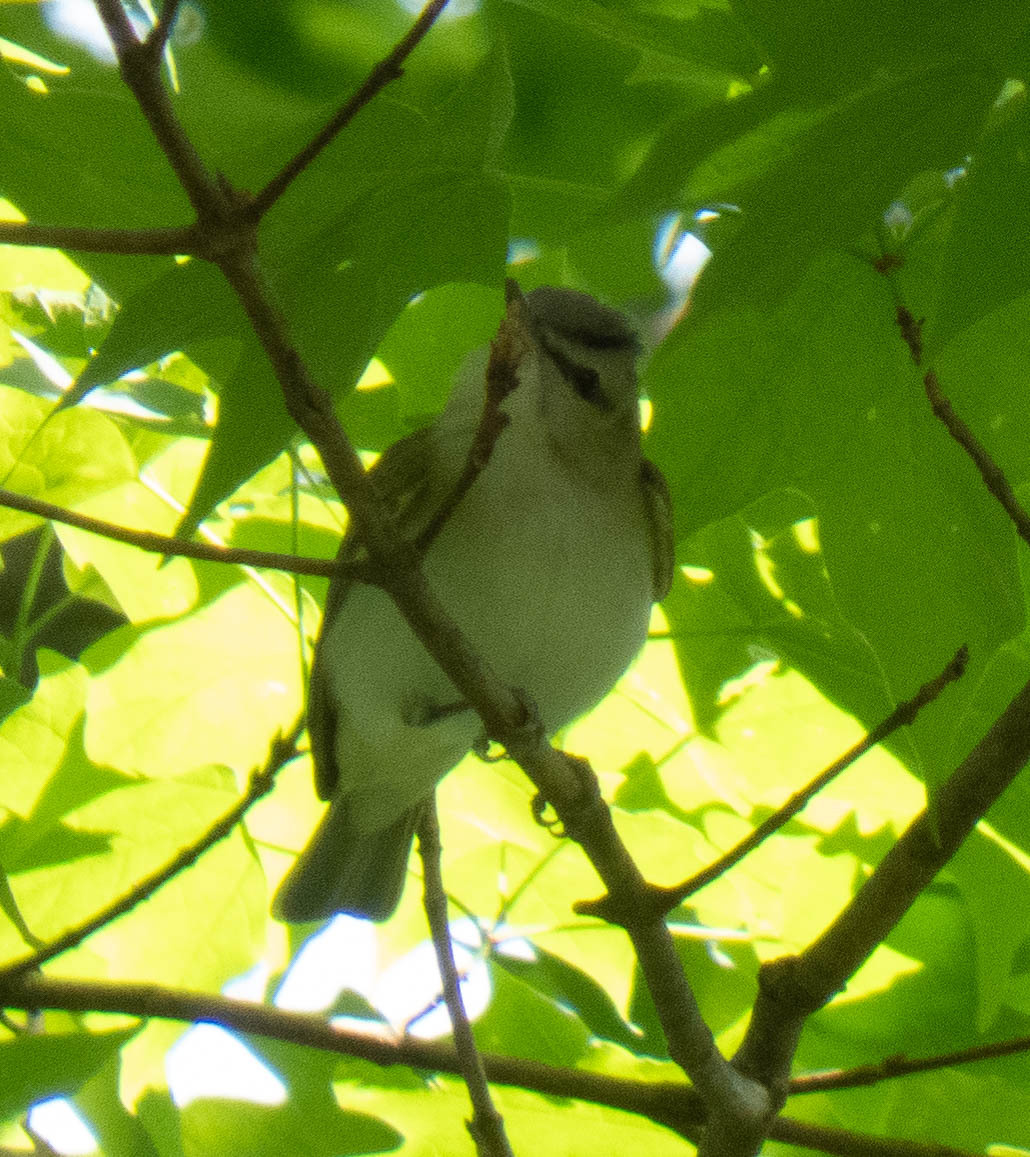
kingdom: Animalia
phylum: Chordata
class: Aves
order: Passeriformes
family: Vireonidae
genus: Vireo
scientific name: Vireo olivaceus
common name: Red-eyed vireo
